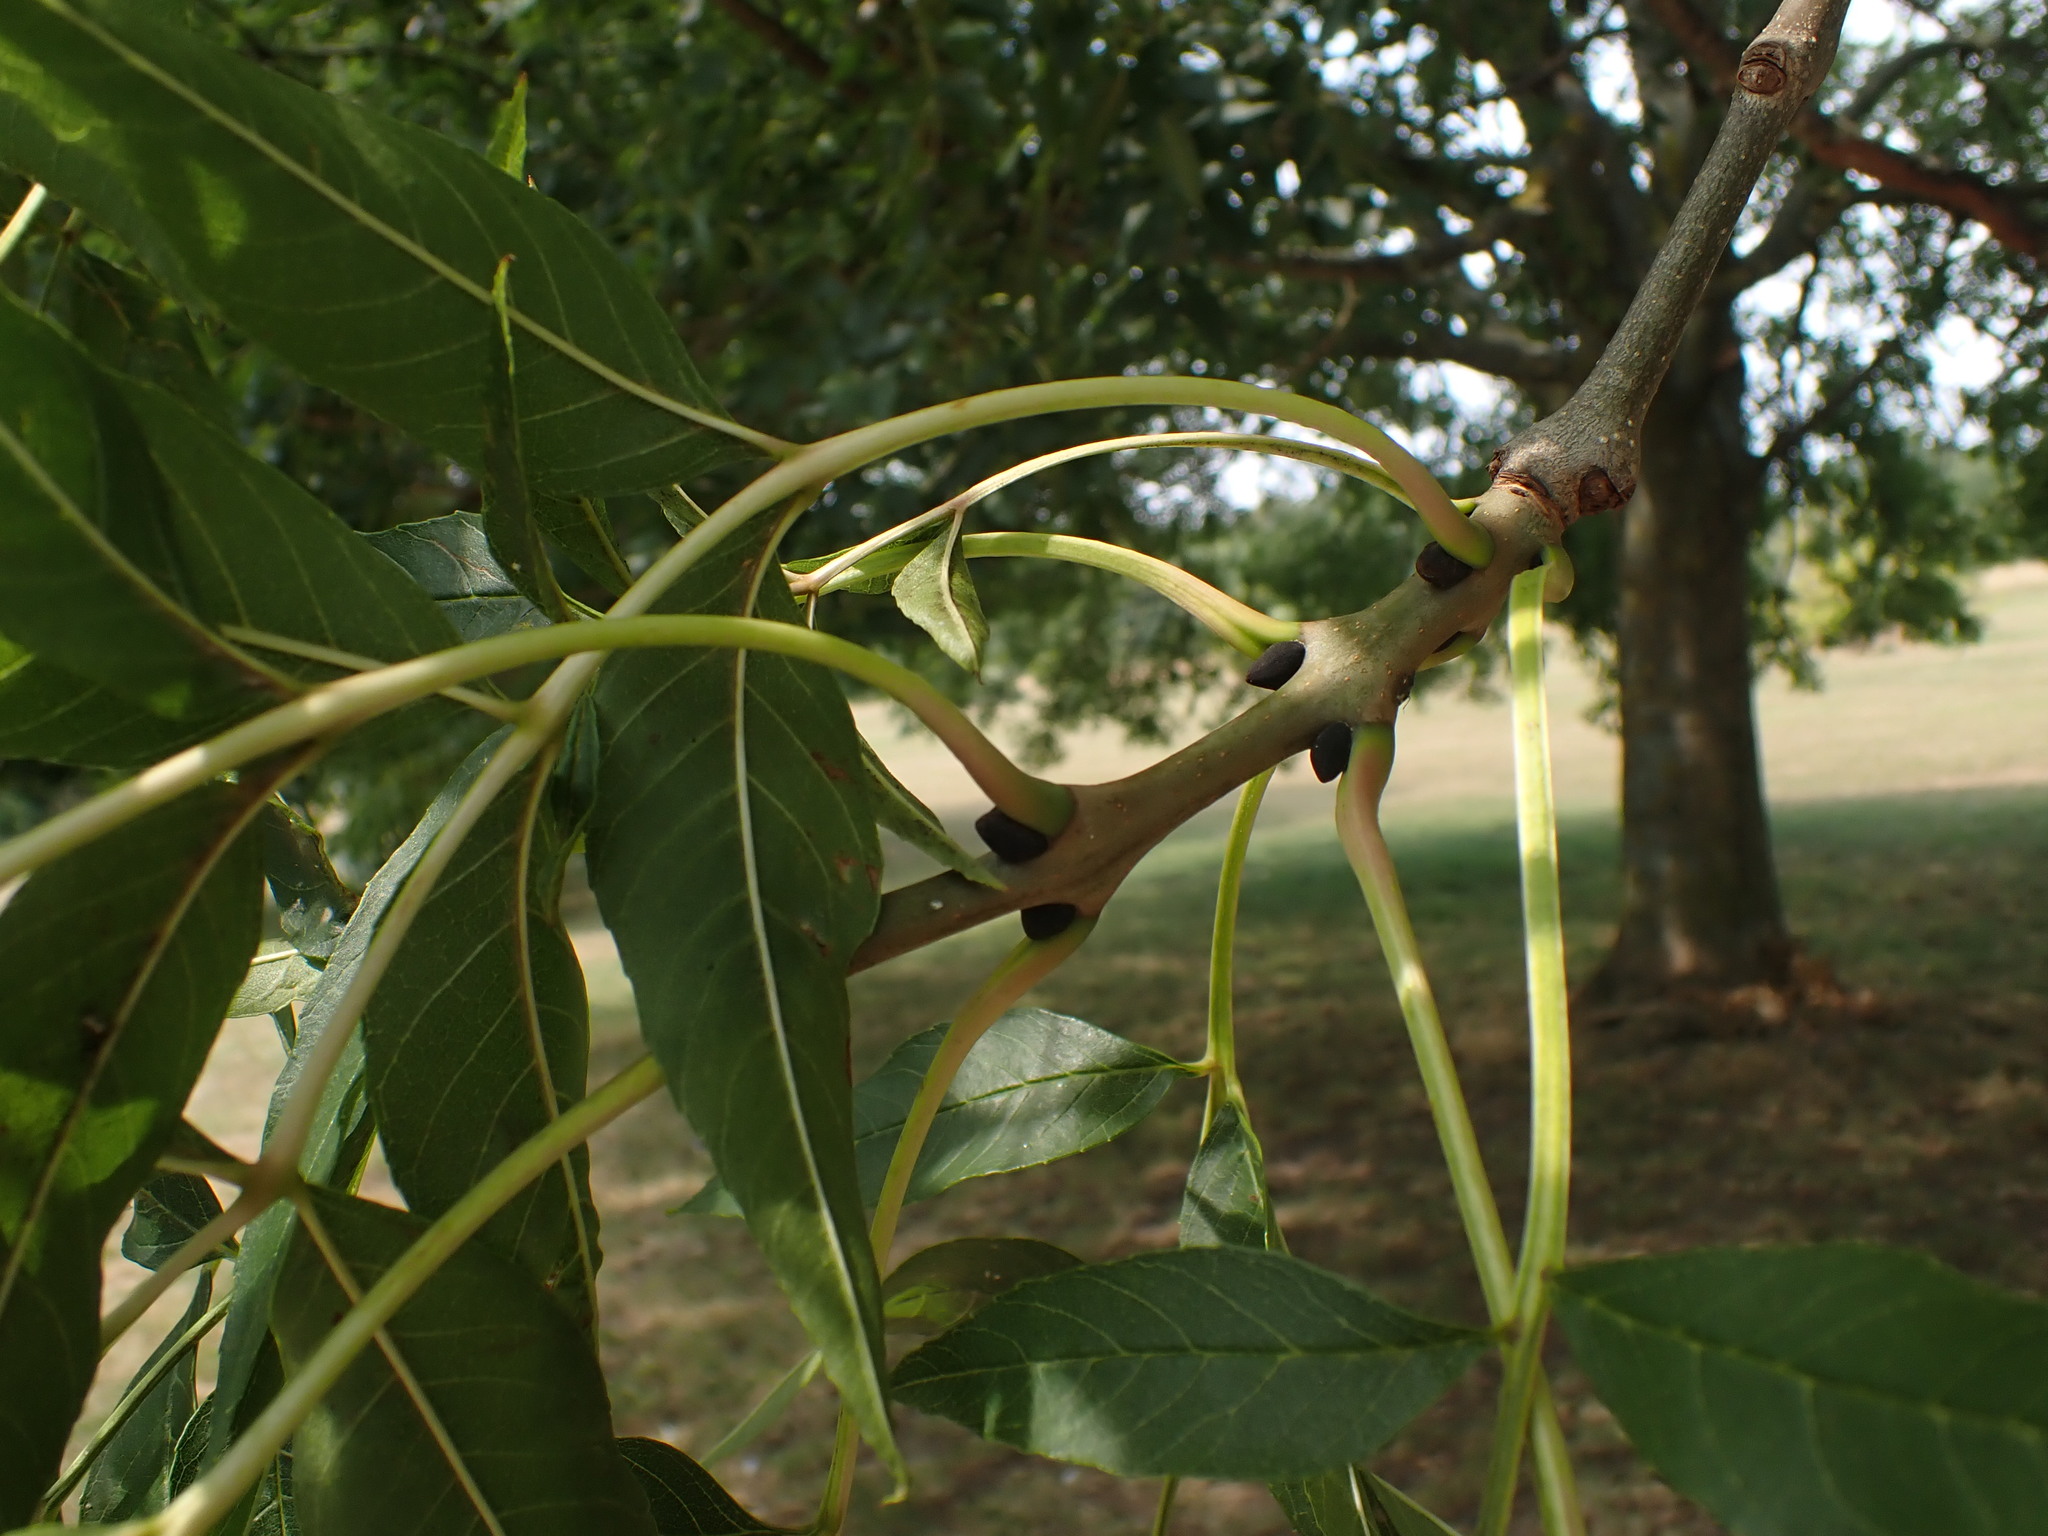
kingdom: Plantae
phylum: Tracheophyta
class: Magnoliopsida
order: Lamiales
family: Oleaceae
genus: Fraxinus
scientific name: Fraxinus excelsior
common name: European ash
